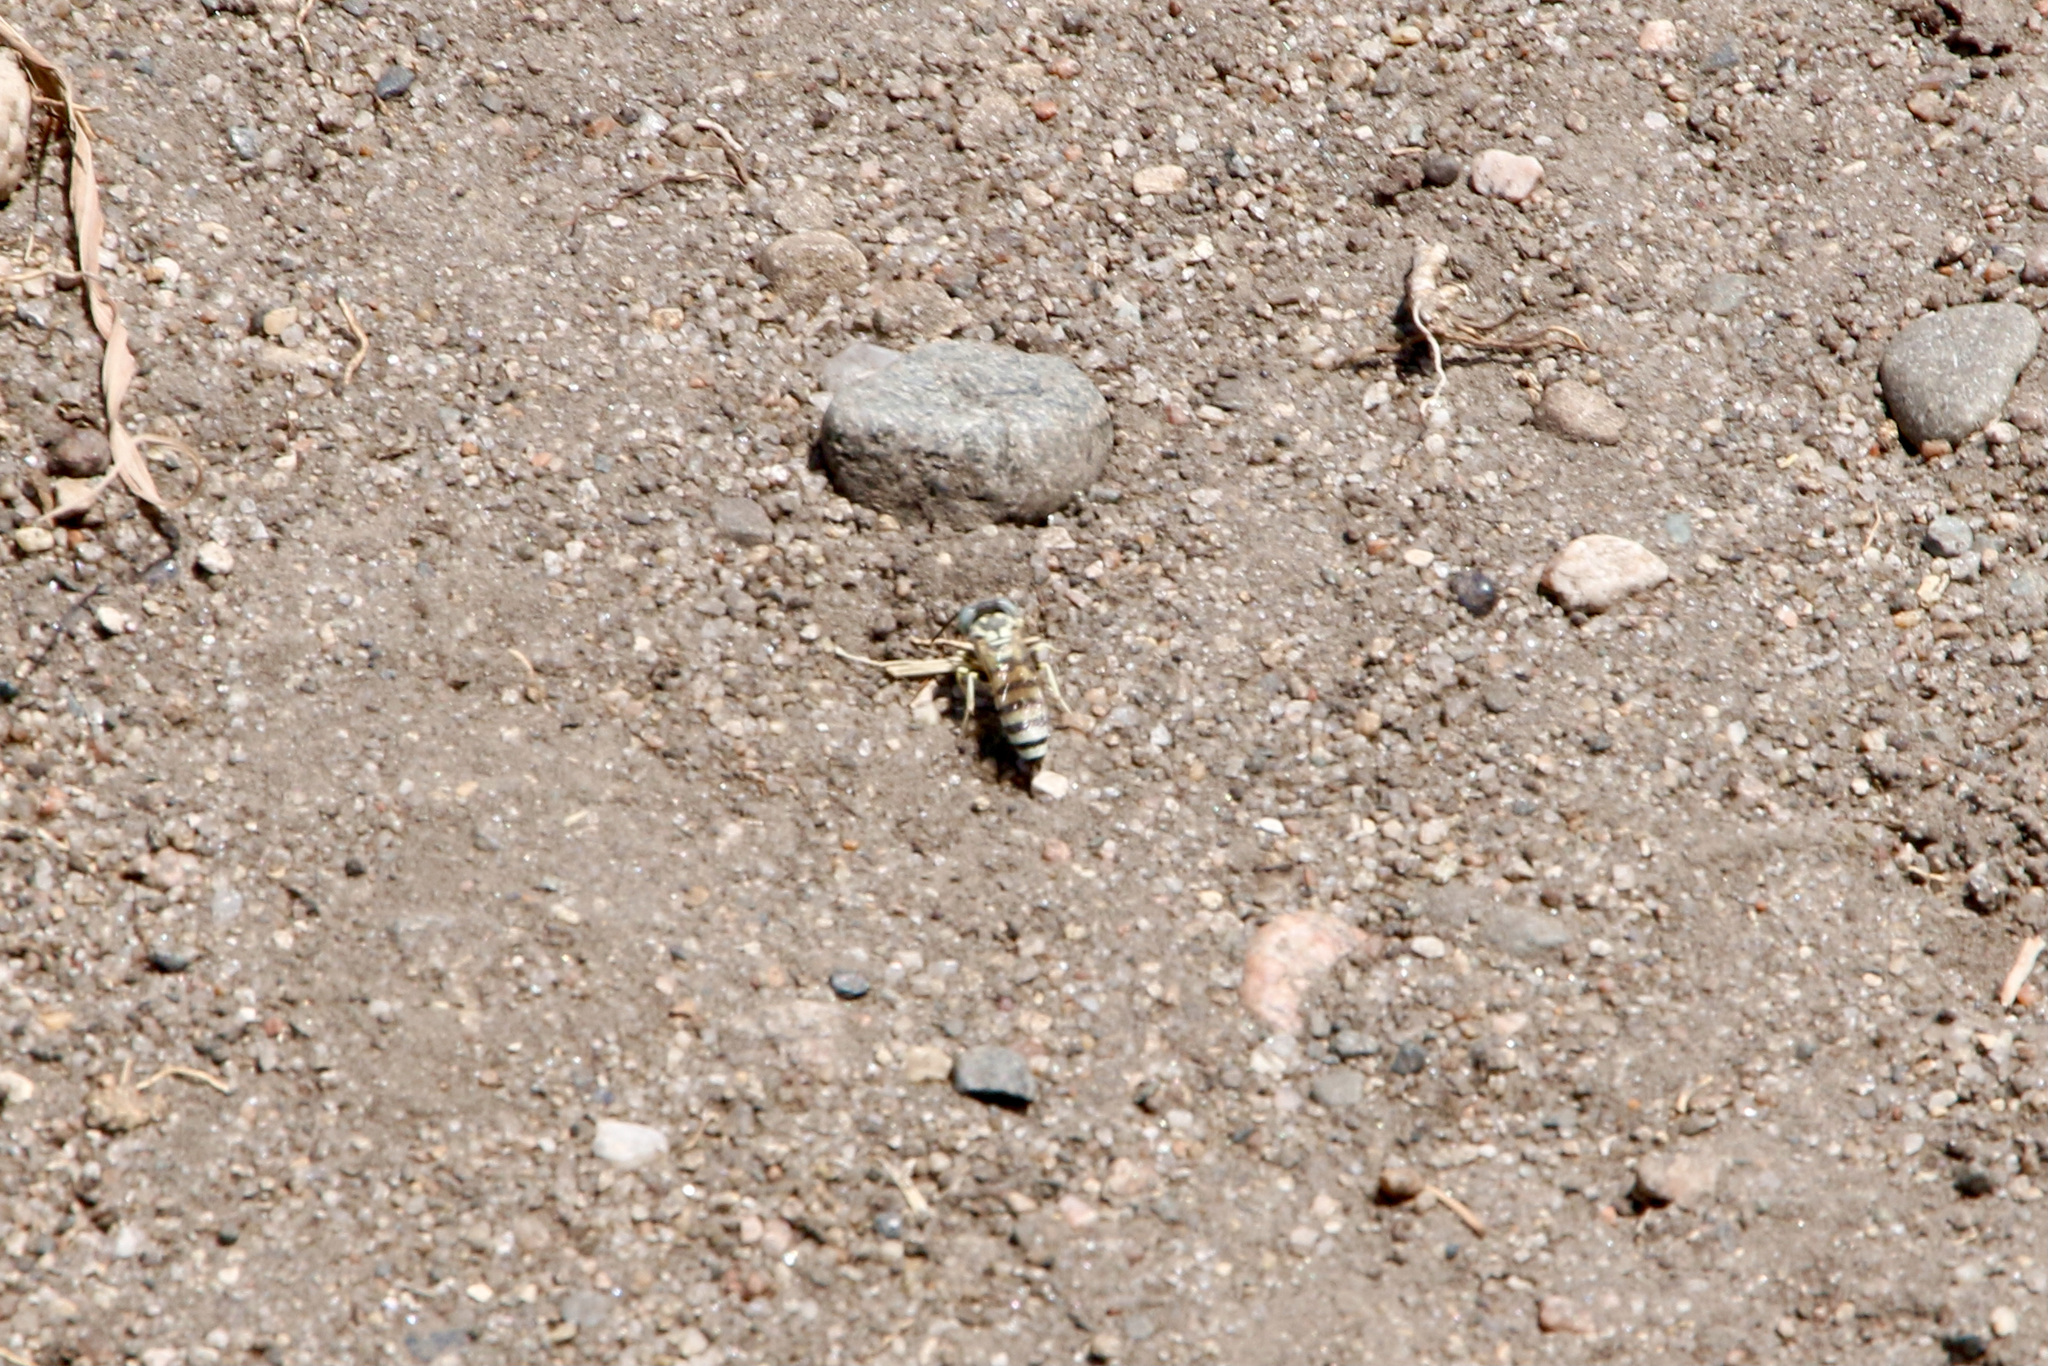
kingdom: Animalia
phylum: Arthropoda
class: Insecta
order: Hymenoptera
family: Crabronidae
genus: Microbembex
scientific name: Microbembex monodonta
